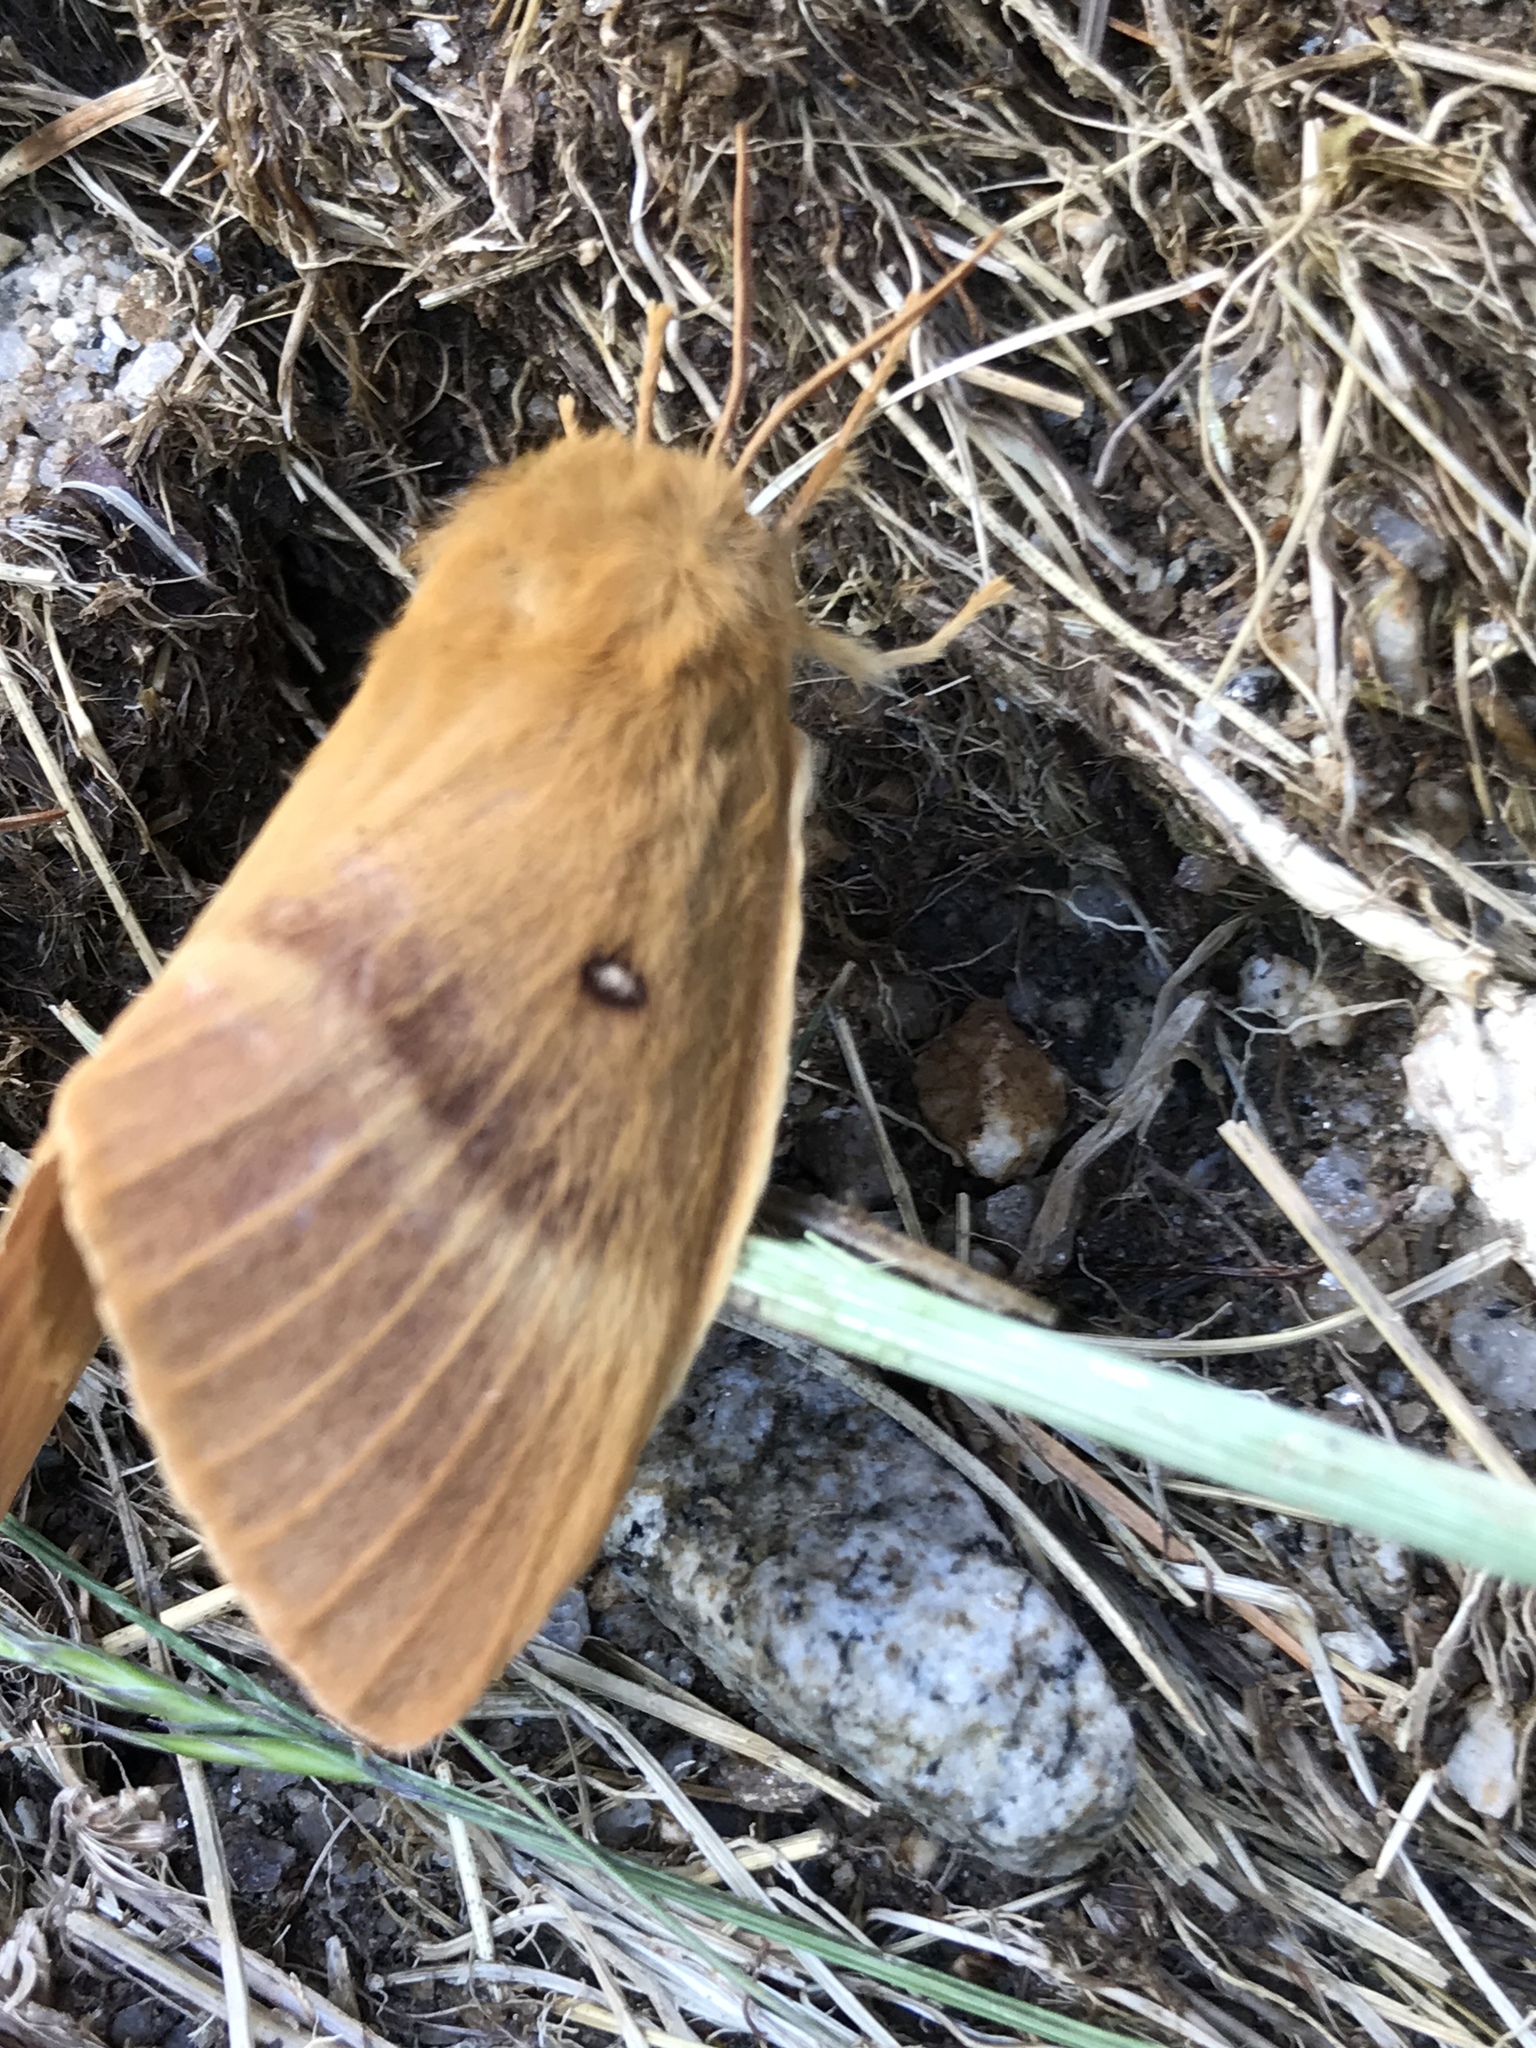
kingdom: Animalia
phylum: Arthropoda
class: Insecta
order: Lepidoptera
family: Lasiocampidae
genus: Lasiocampa
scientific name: Lasiocampa quercus
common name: Oak eggar
